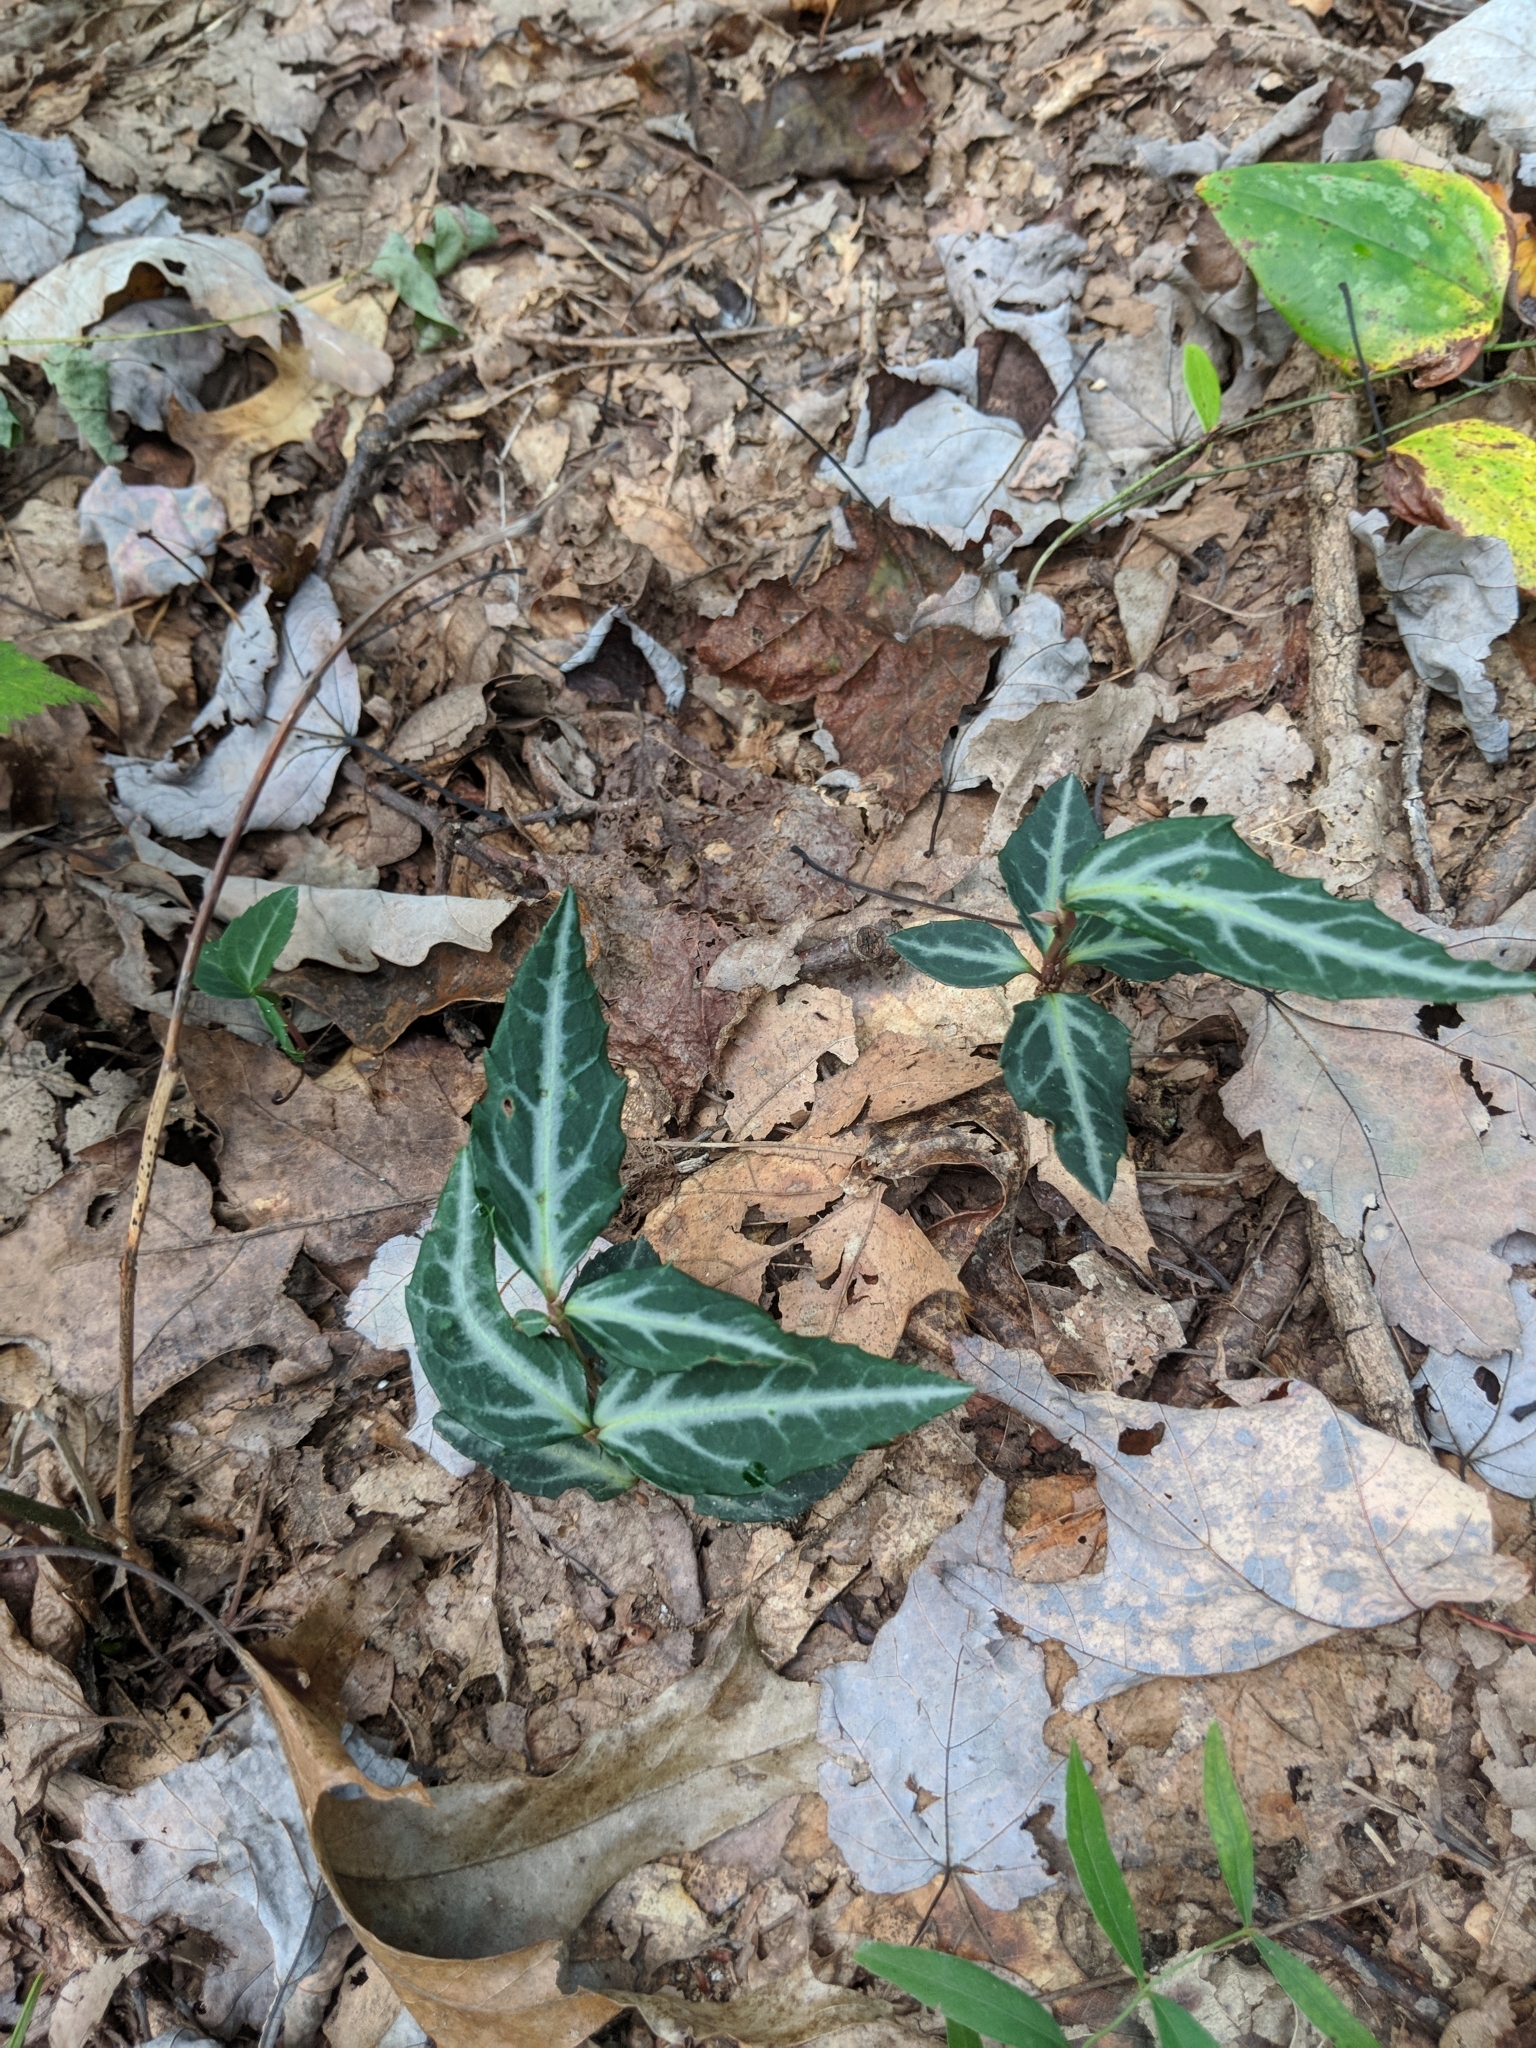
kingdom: Plantae
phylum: Tracheophyta
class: Magnoliopsida
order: Ericales
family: Ericaceae
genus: Chimaphila
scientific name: Chimaphila maculata
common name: Spotted pipsissewa
